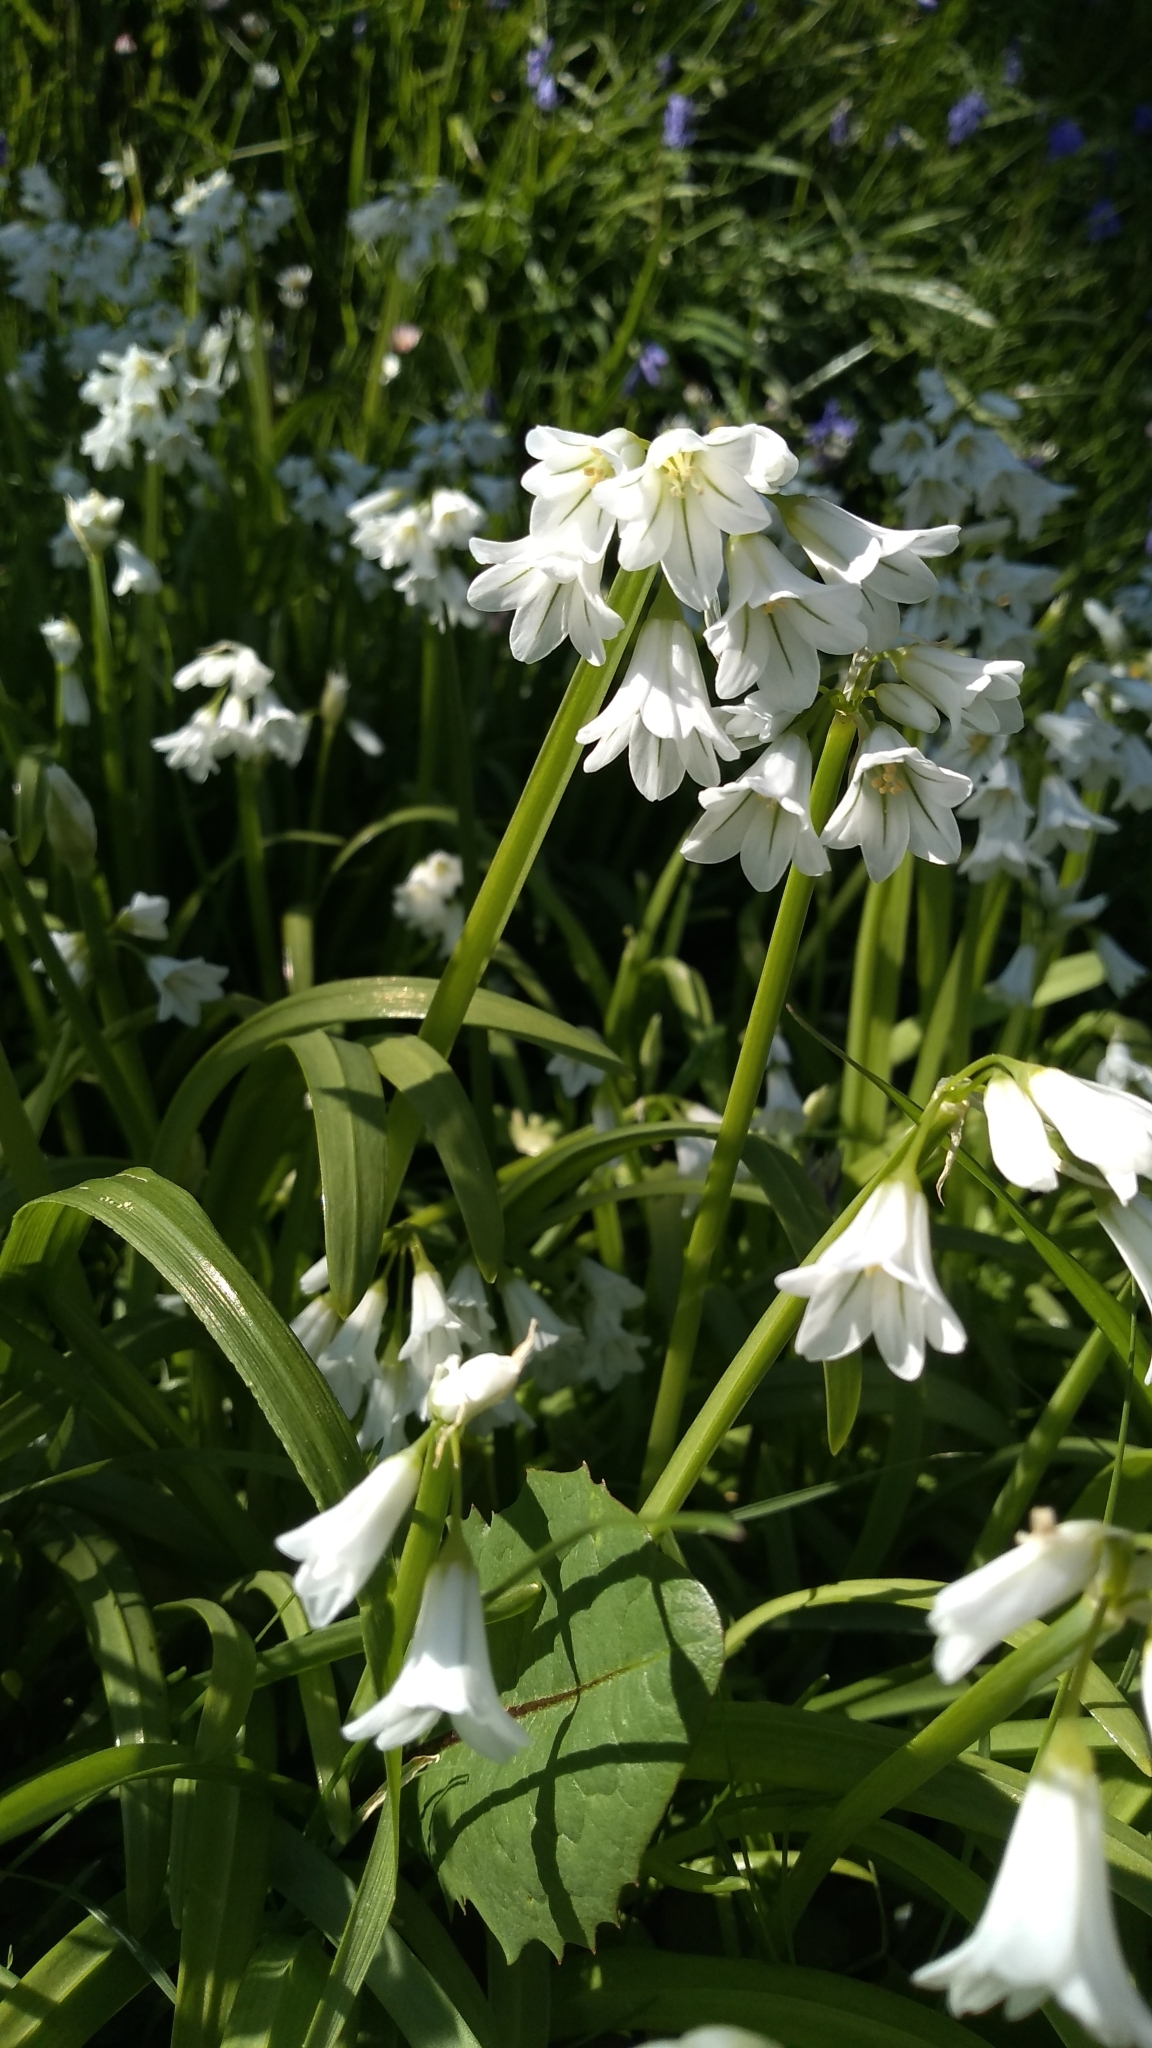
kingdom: Plantae
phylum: Tracheophyta
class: Liliopsida
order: Asparagales
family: Amaryllidaceae
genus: Allium
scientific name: Allium triquetrum
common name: Three-cornered garlic
